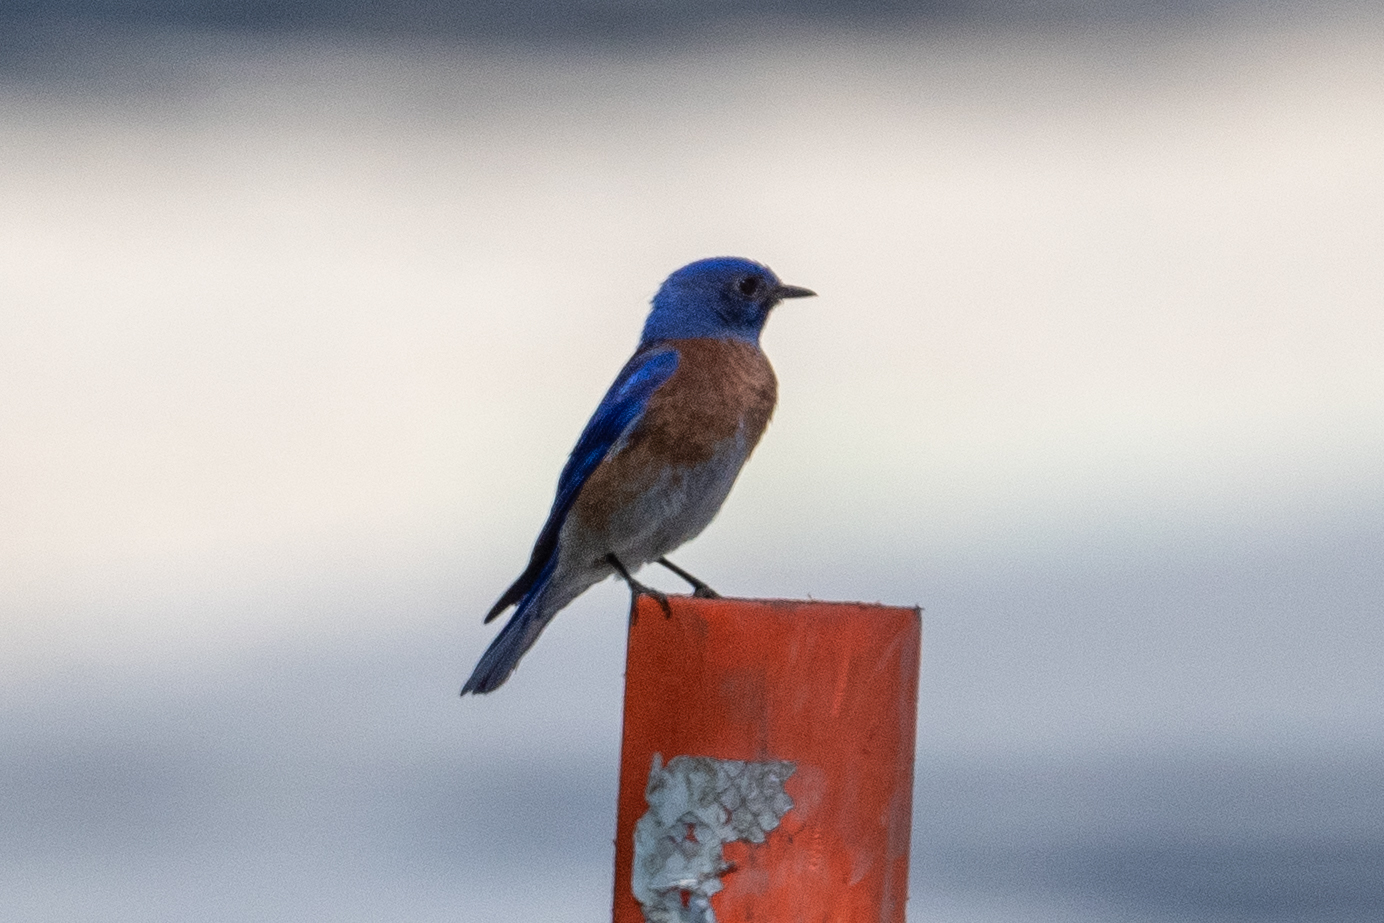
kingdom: Animalia
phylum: Chordata
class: Aves
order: Passeriformes
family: Turdidae
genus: Sialia
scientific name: Sialia mexicana
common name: Western bluebird
